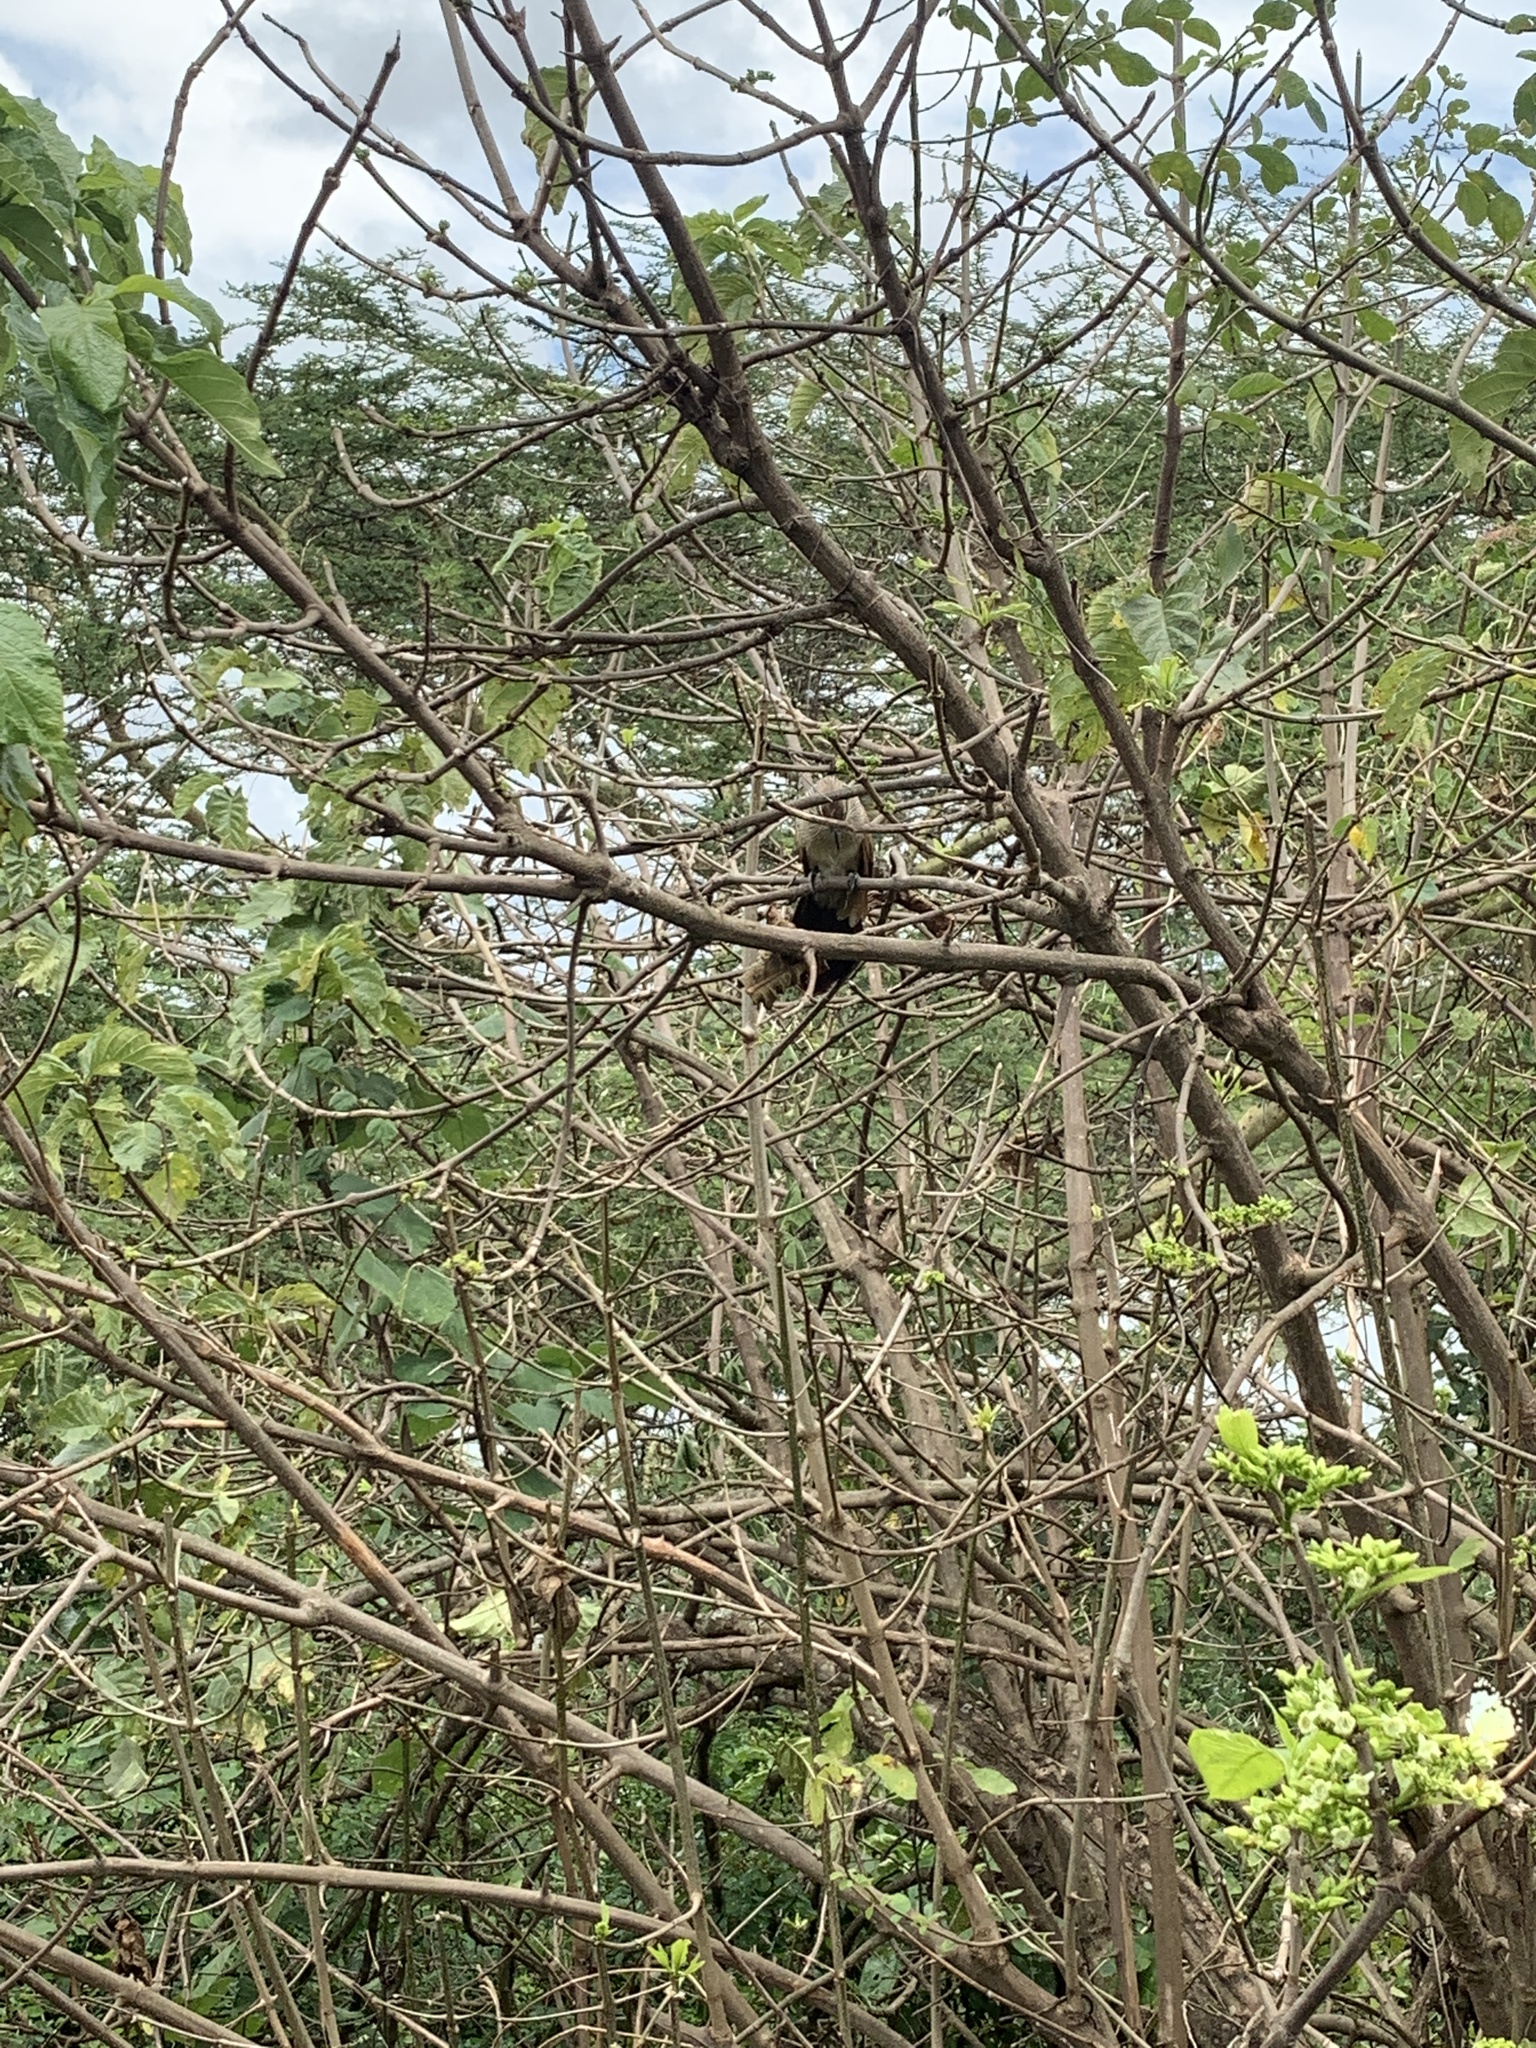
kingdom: Animalia
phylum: Chordata
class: Aves
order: Cuculiformes
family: Cuculidae
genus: Centropus
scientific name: Centropus superciliosus
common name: White-browed coucal
